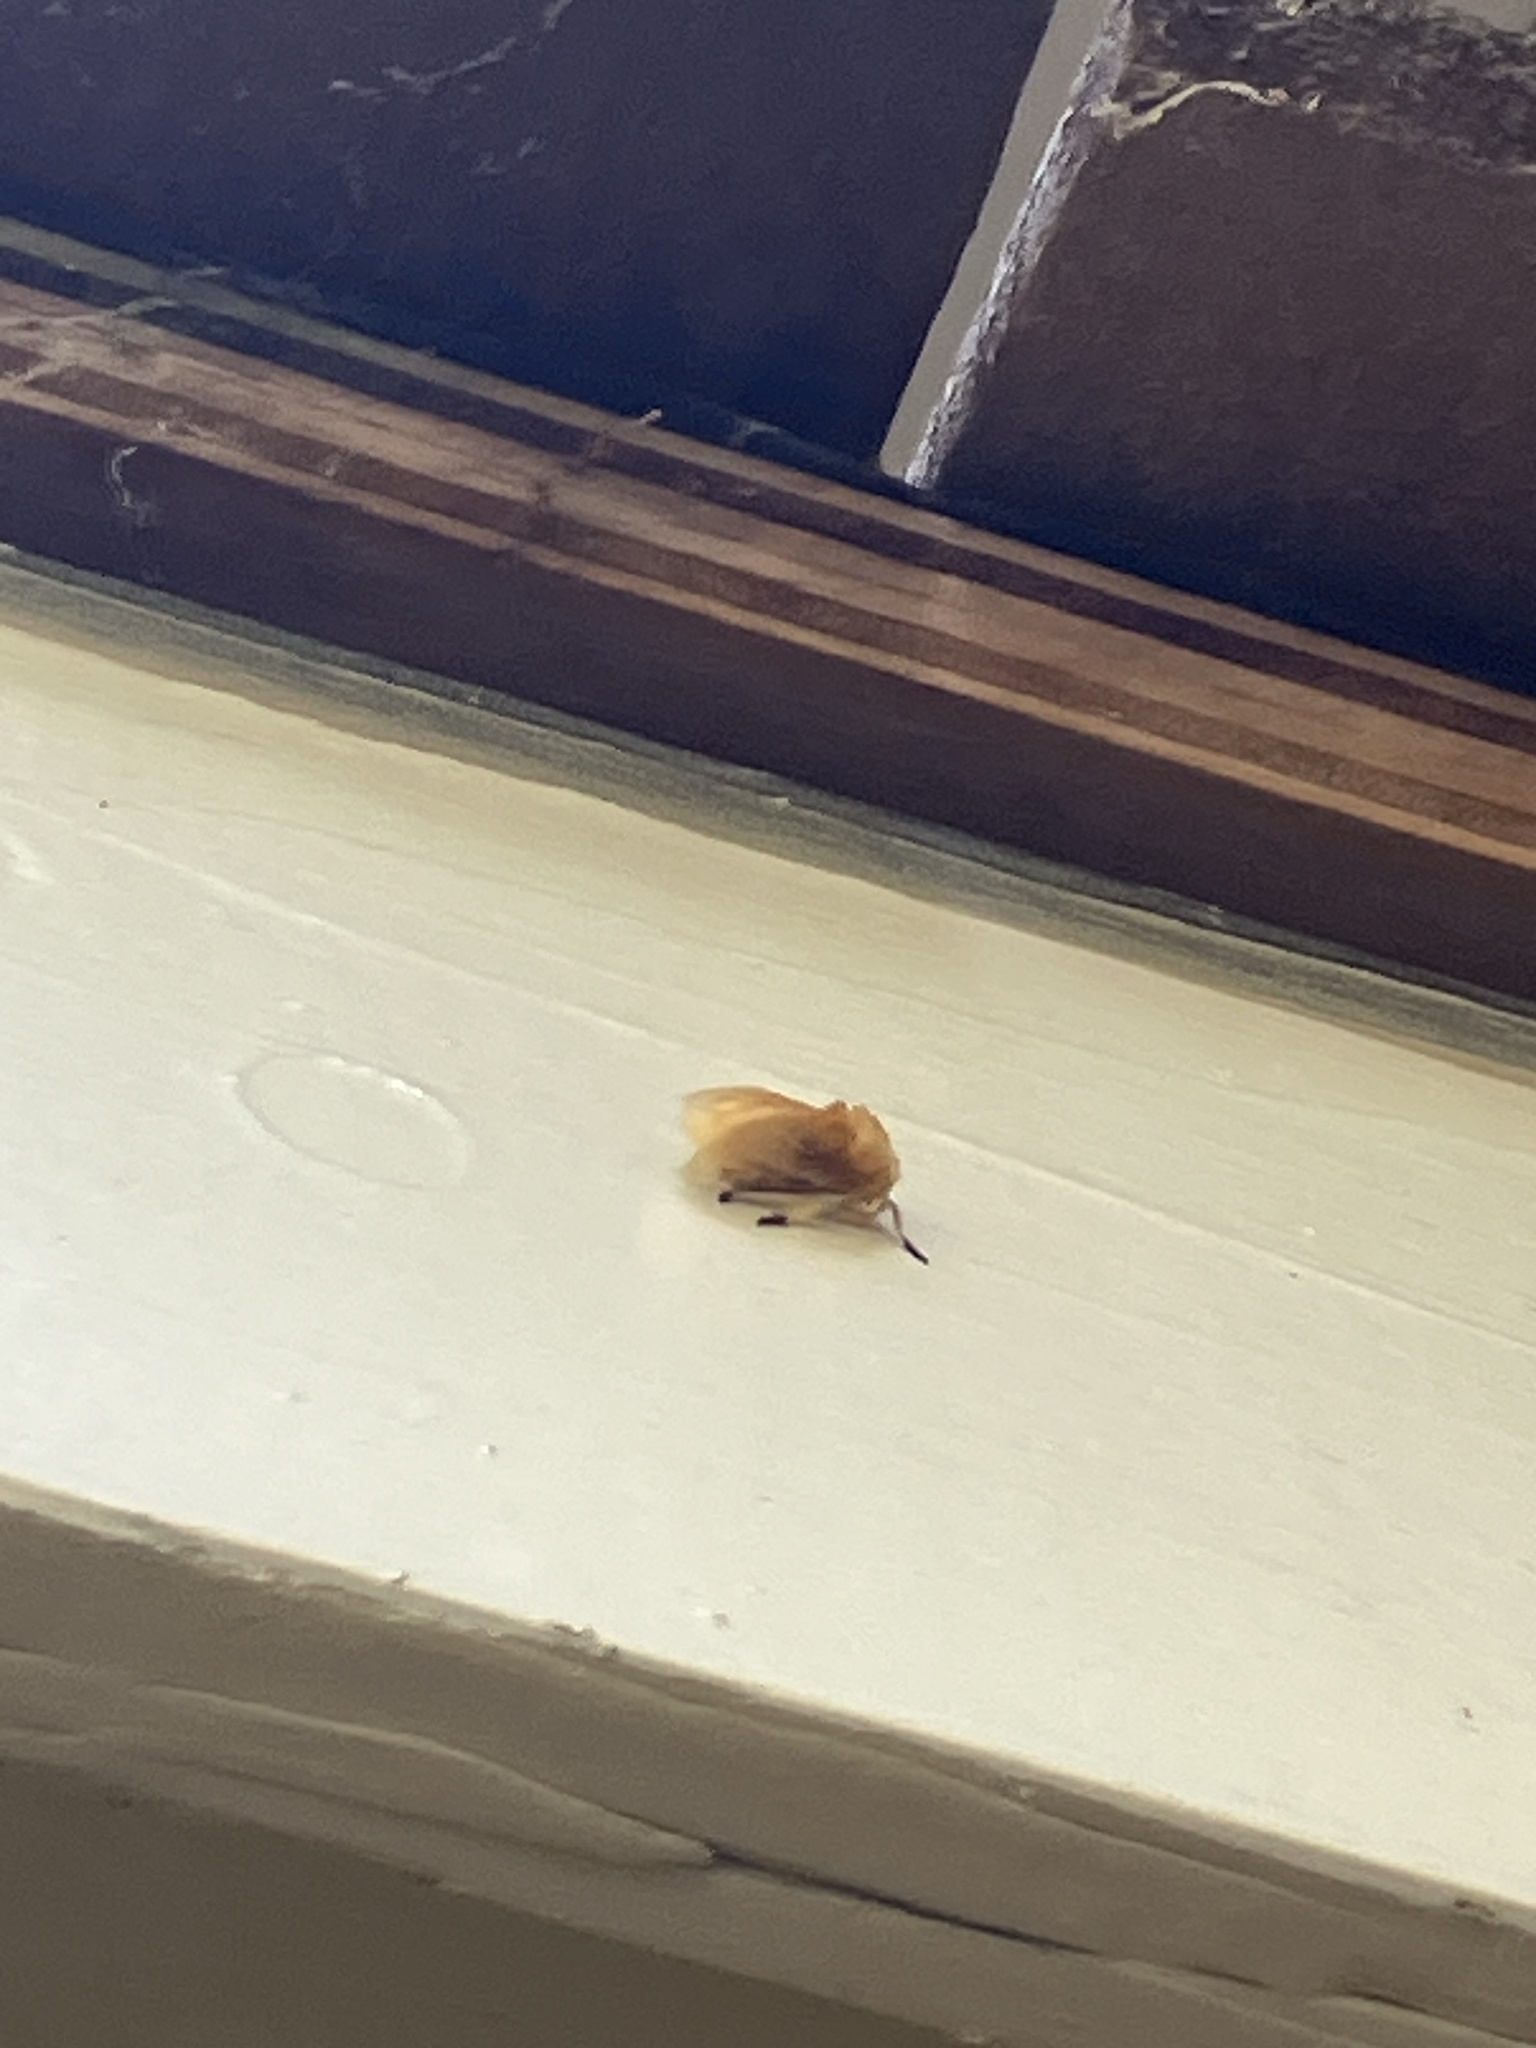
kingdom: Animalia
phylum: Arthropoda
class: Insecta
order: Lepidoptera
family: Megalopygidae
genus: Megalopyge
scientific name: Megalopyge opercularis
